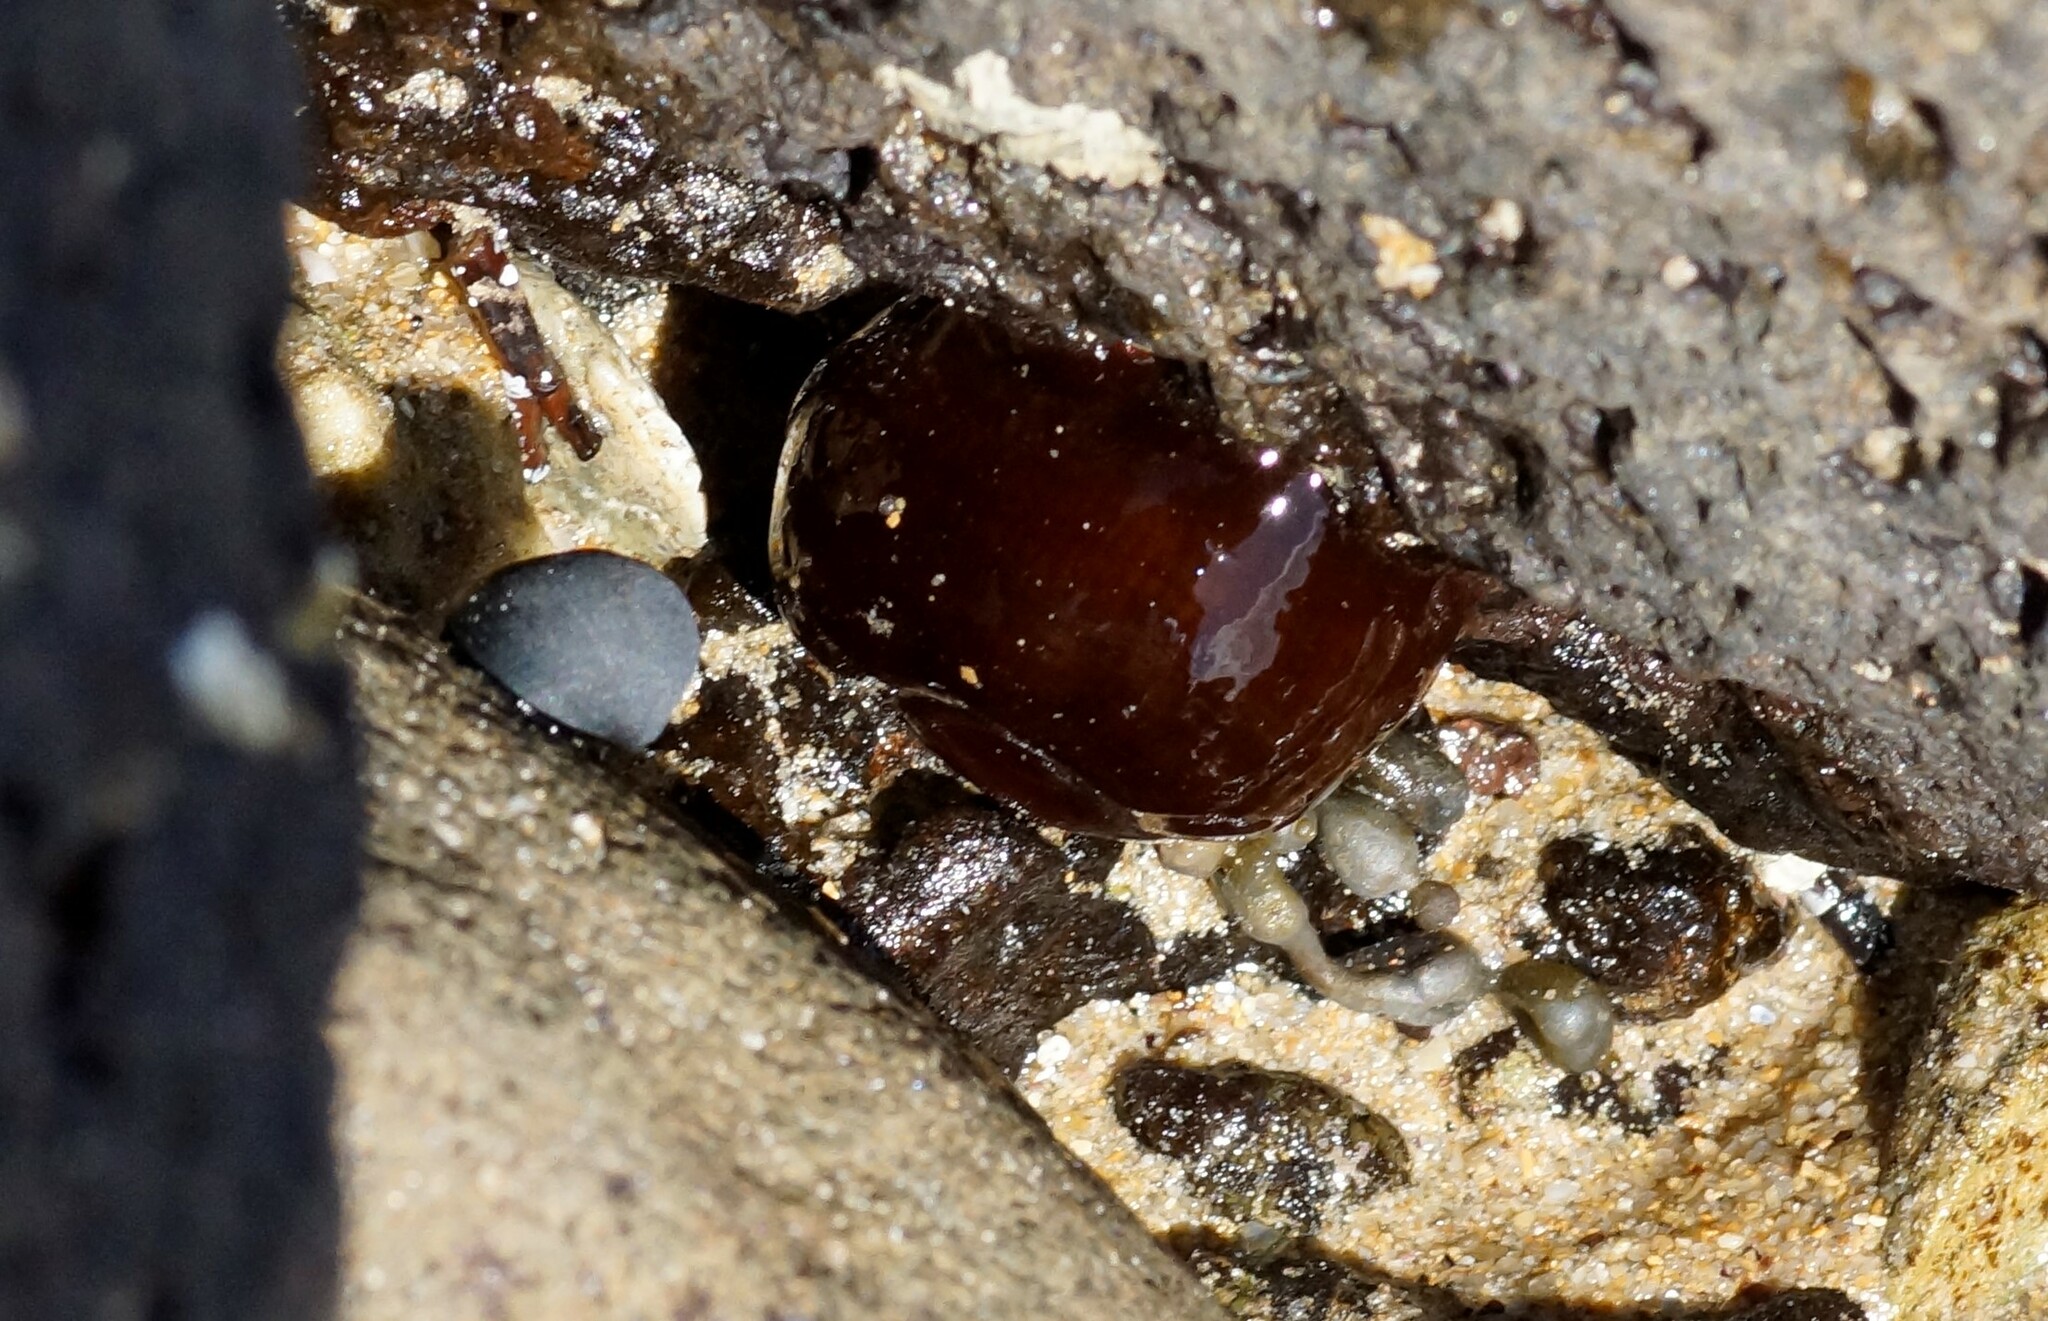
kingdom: Animalia
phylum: Cnidaria
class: Anthozoa
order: Actiniaria
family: Actiniidae
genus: Actinia
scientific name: Actinia tenebrosa
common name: Waratah anemone
